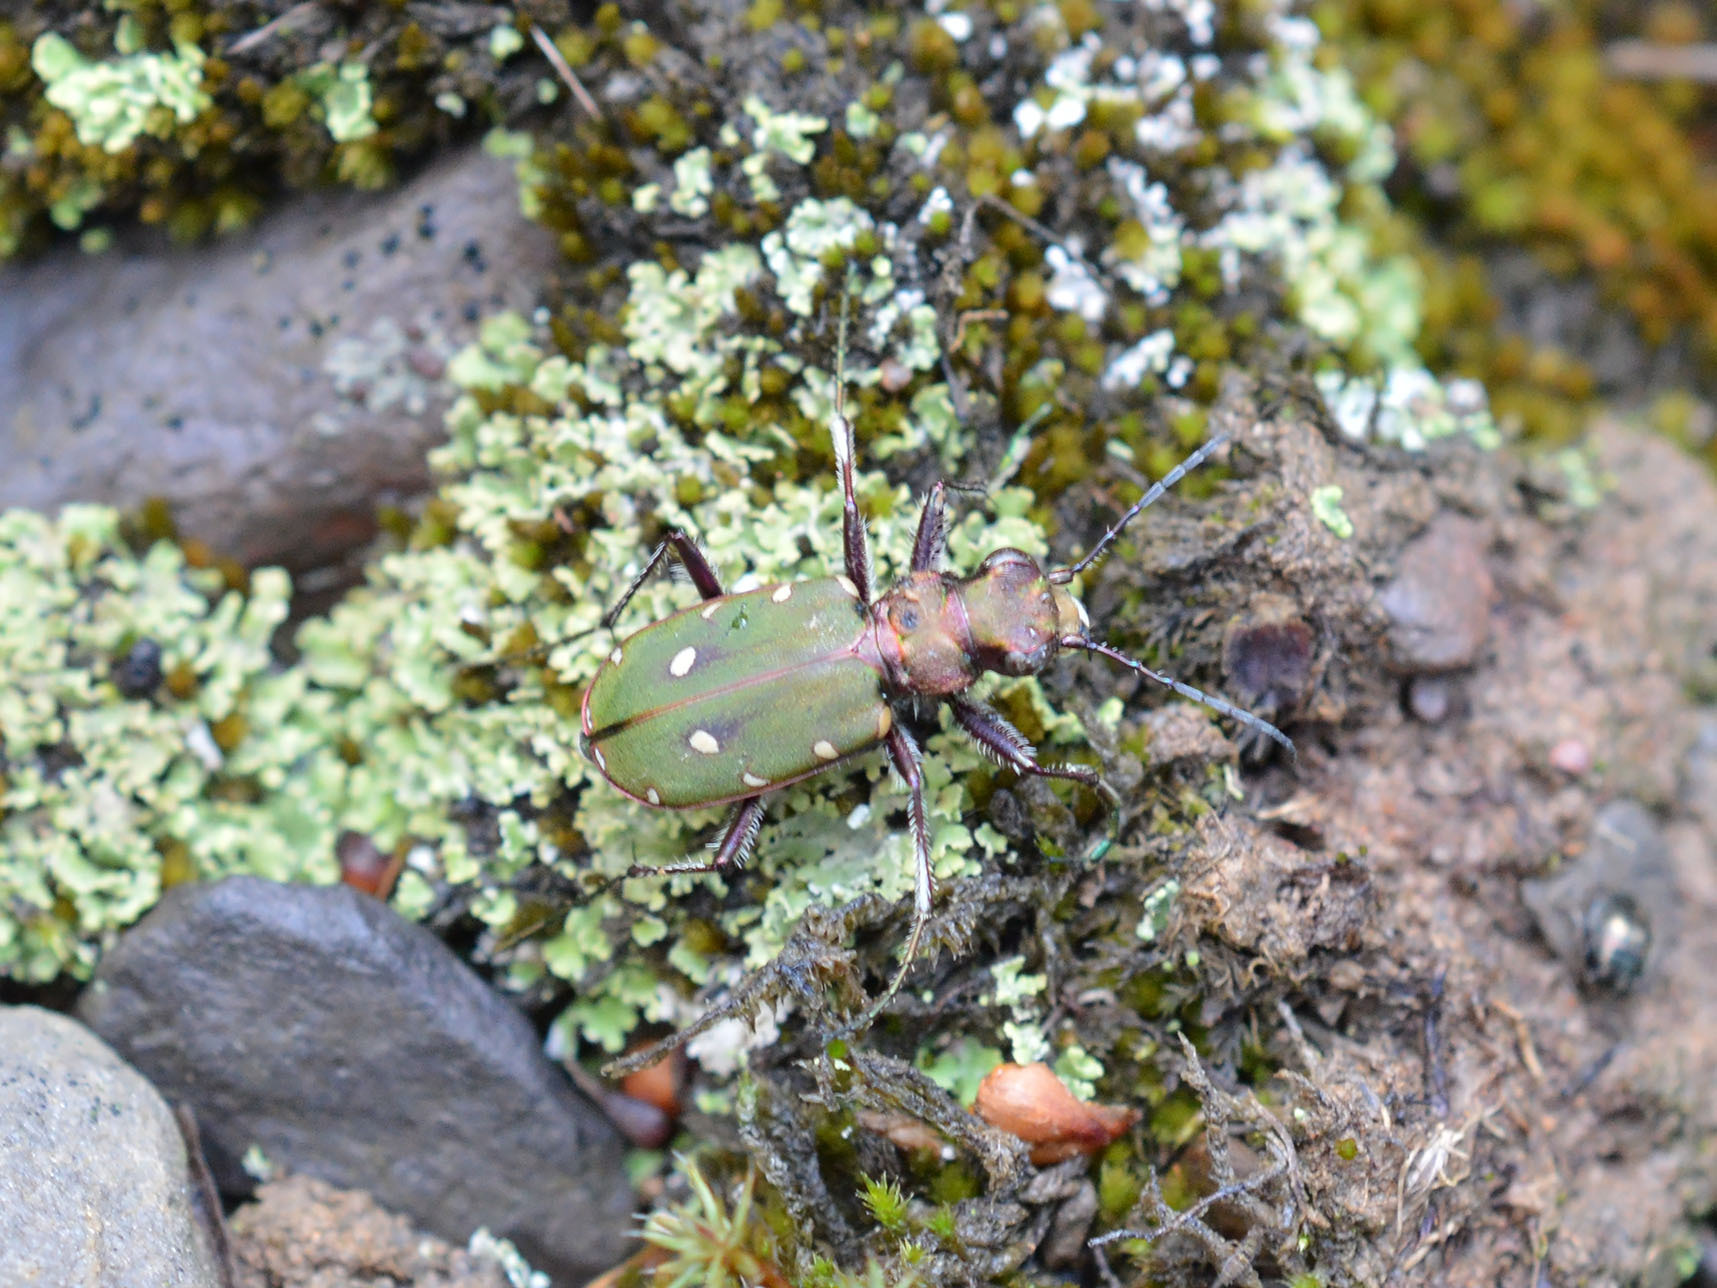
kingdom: Animalia
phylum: Arthropoda
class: Insecta
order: Coleoptera
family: Carabidae
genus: Cicindela
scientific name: Cicindela campestris
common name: Common tiger beetle
